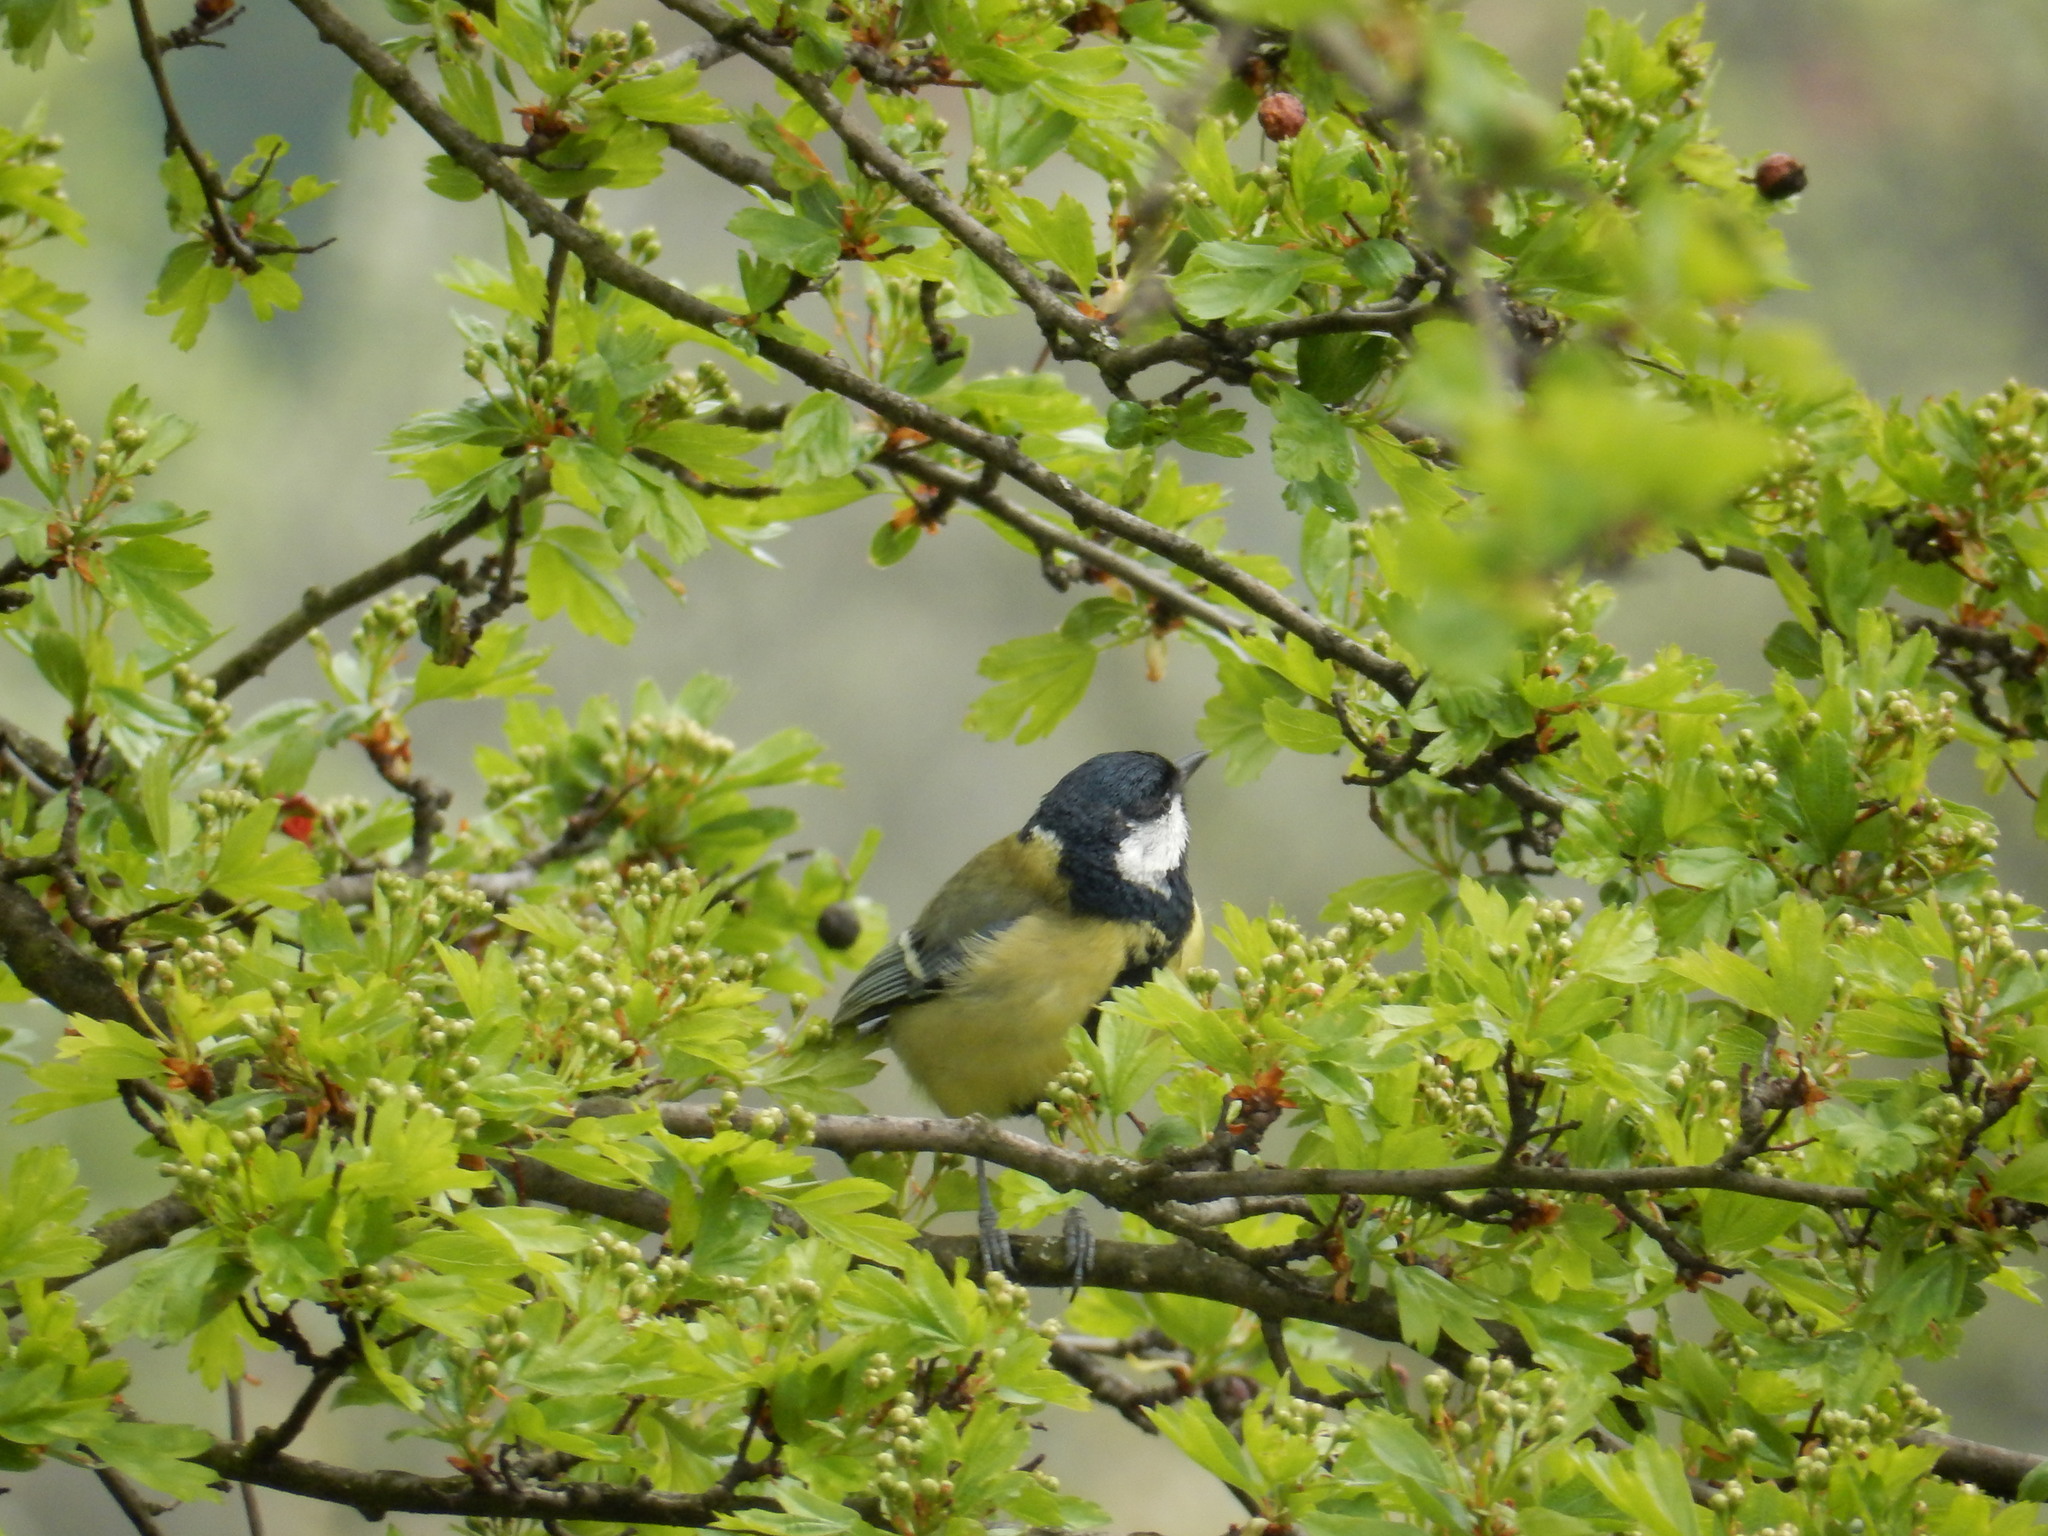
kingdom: Animalia
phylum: Chordata
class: Aves
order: Passeriformes
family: Paridae
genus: Parus
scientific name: Parus major
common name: Great tit
